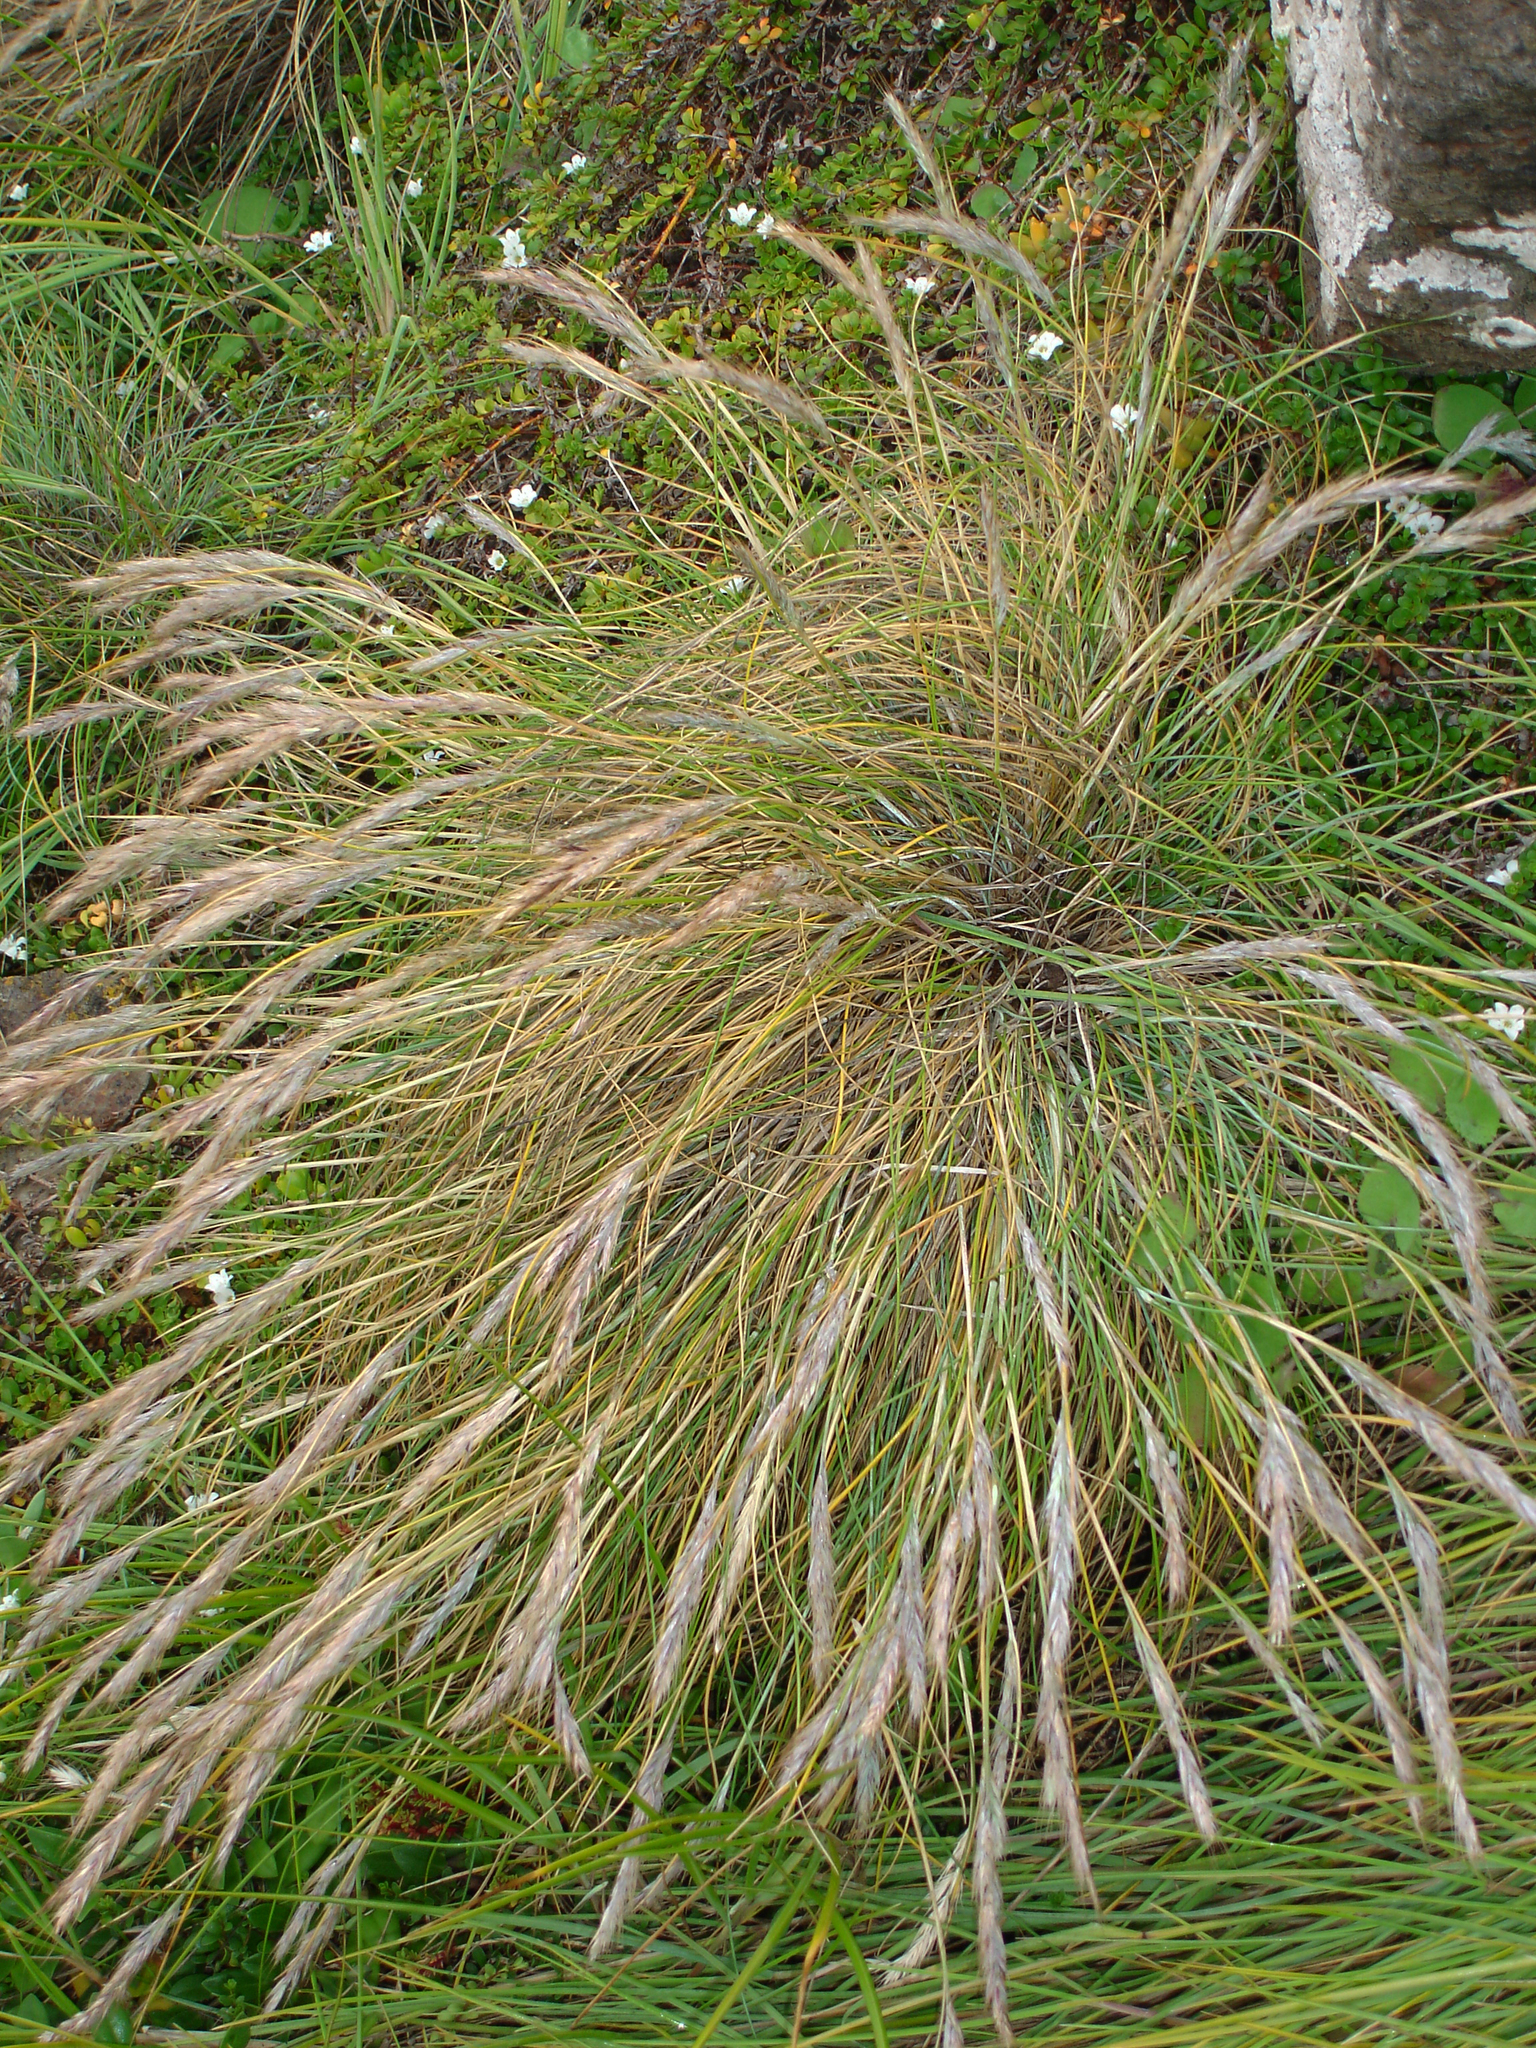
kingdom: Plantae
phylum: Tracheophyta
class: Liliopsida
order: Poales
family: Poaceae
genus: Festuca
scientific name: Festuca coxii
